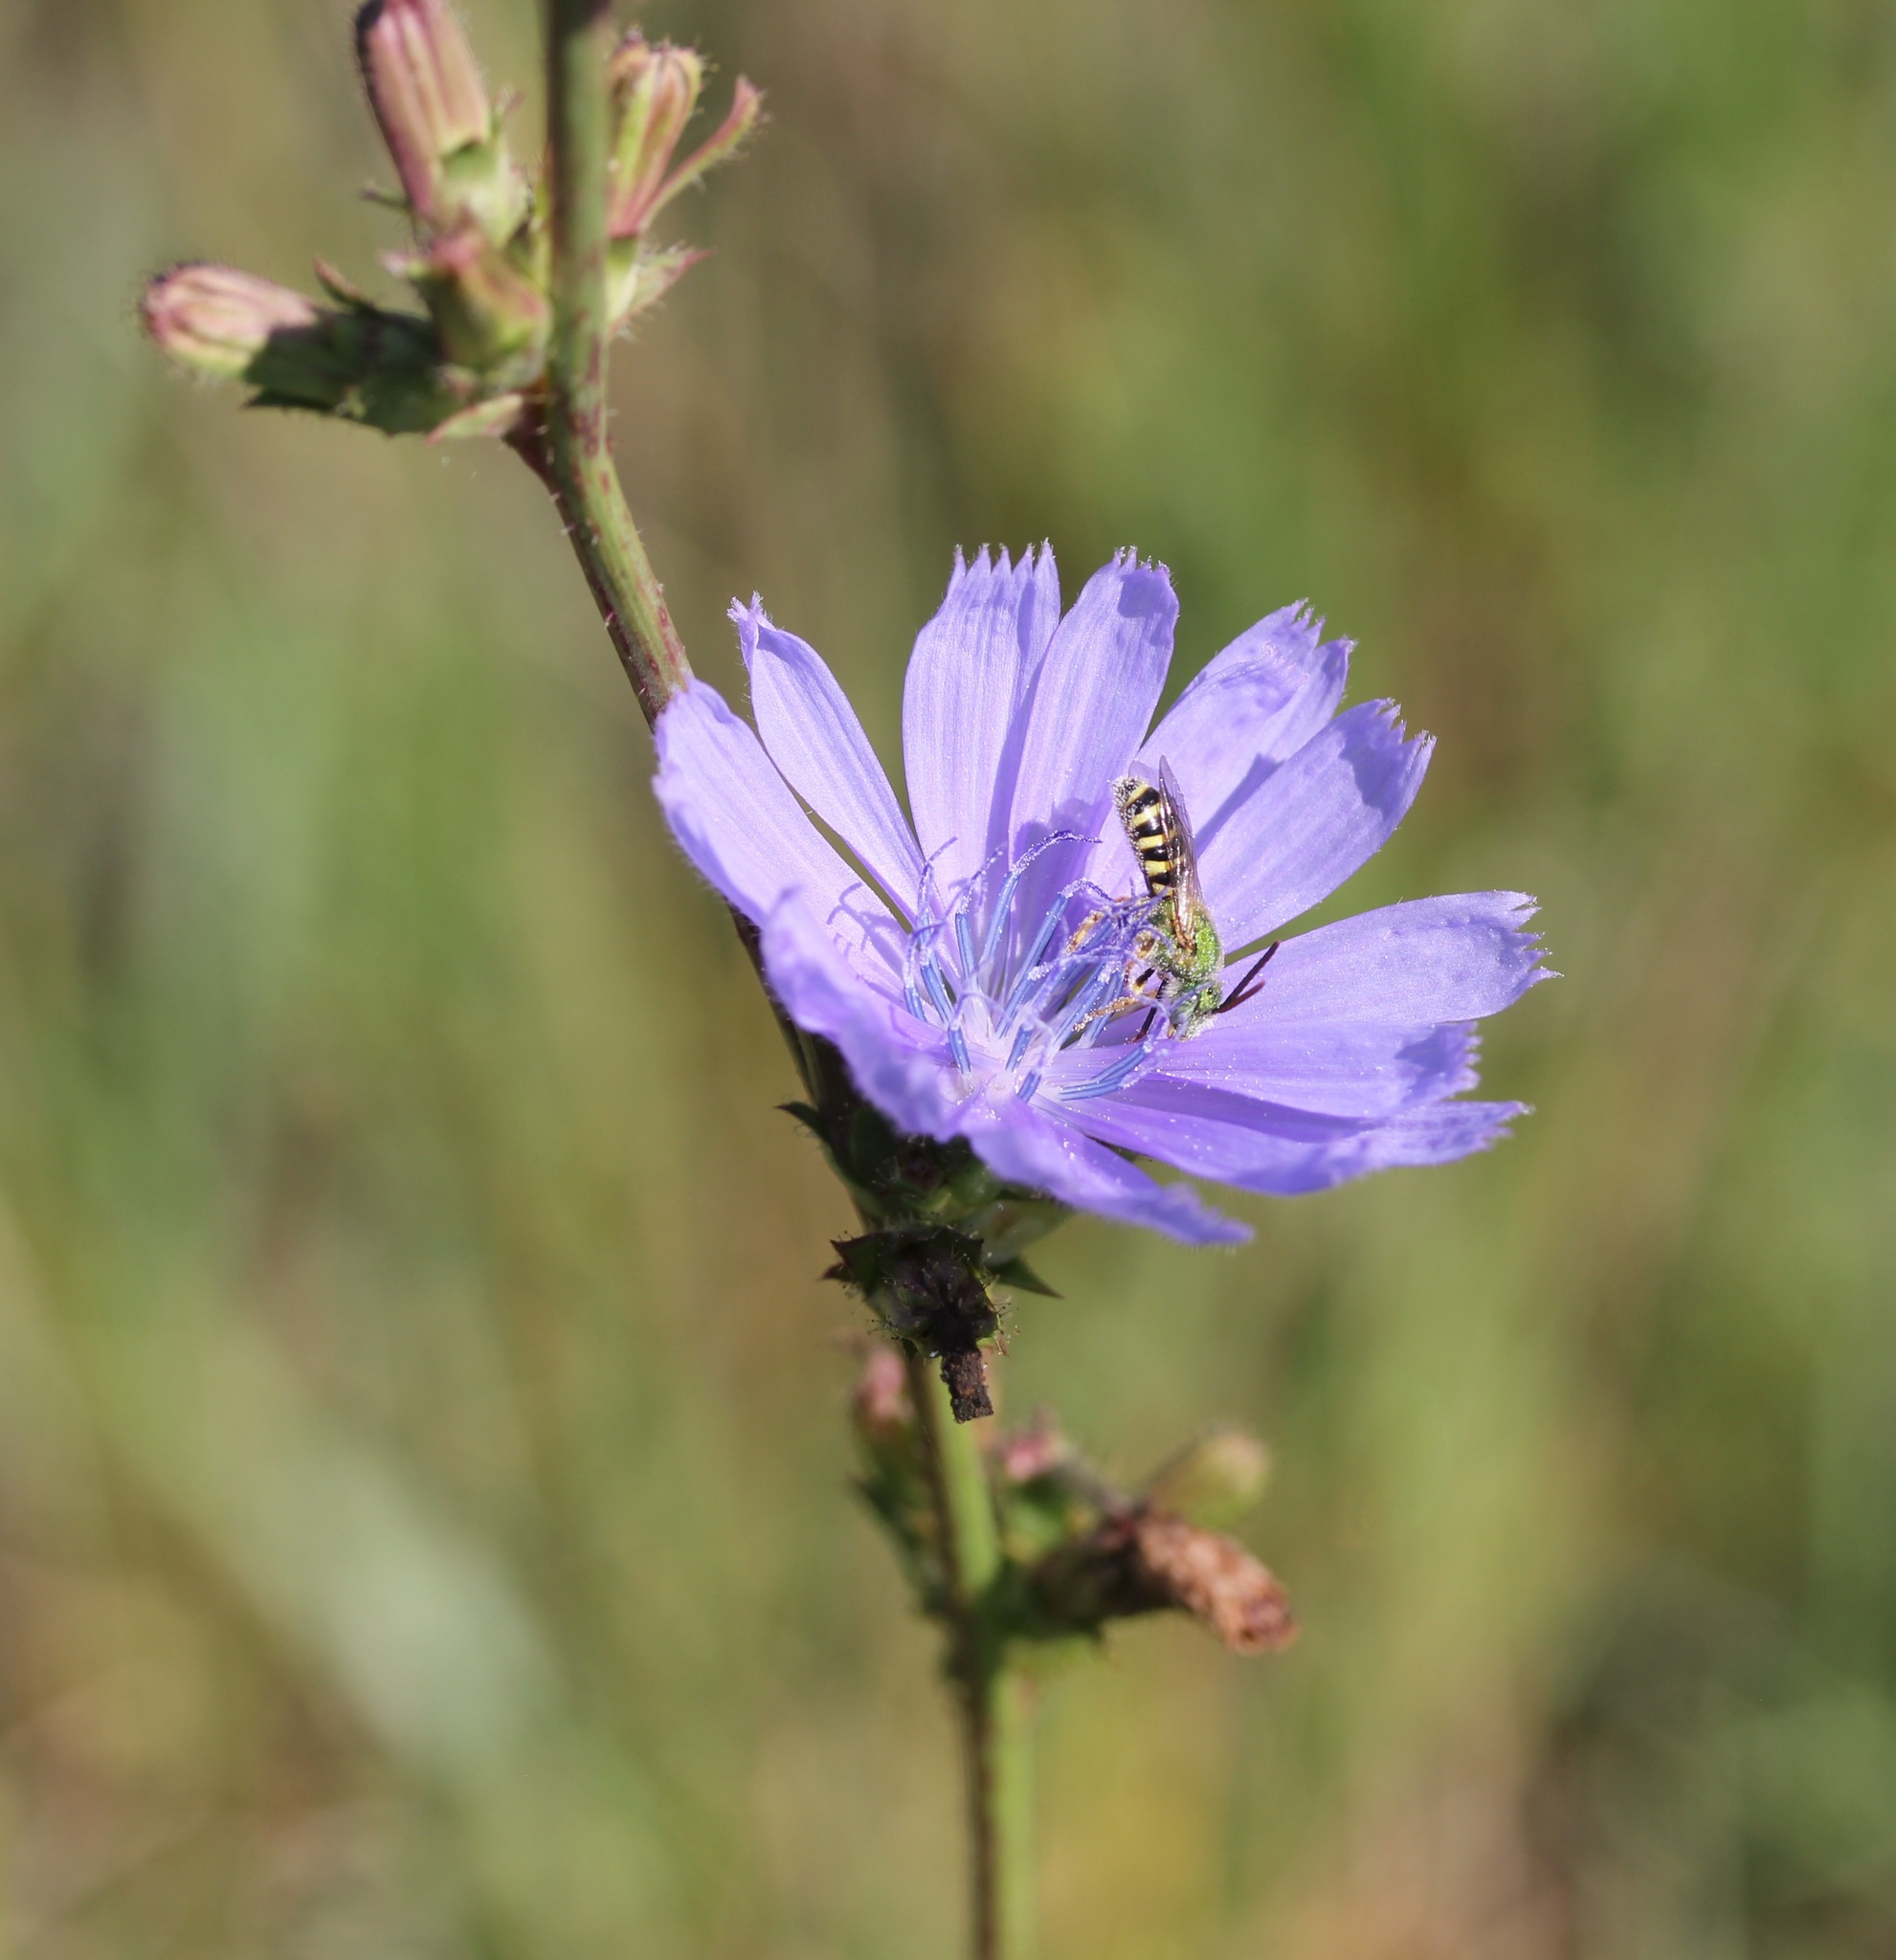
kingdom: Plantae
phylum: Tracheophyta
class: Magnoliopsida
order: Asterales
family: Asteraceae
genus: Cichorium
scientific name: Cichorium intybus
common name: Chicory
